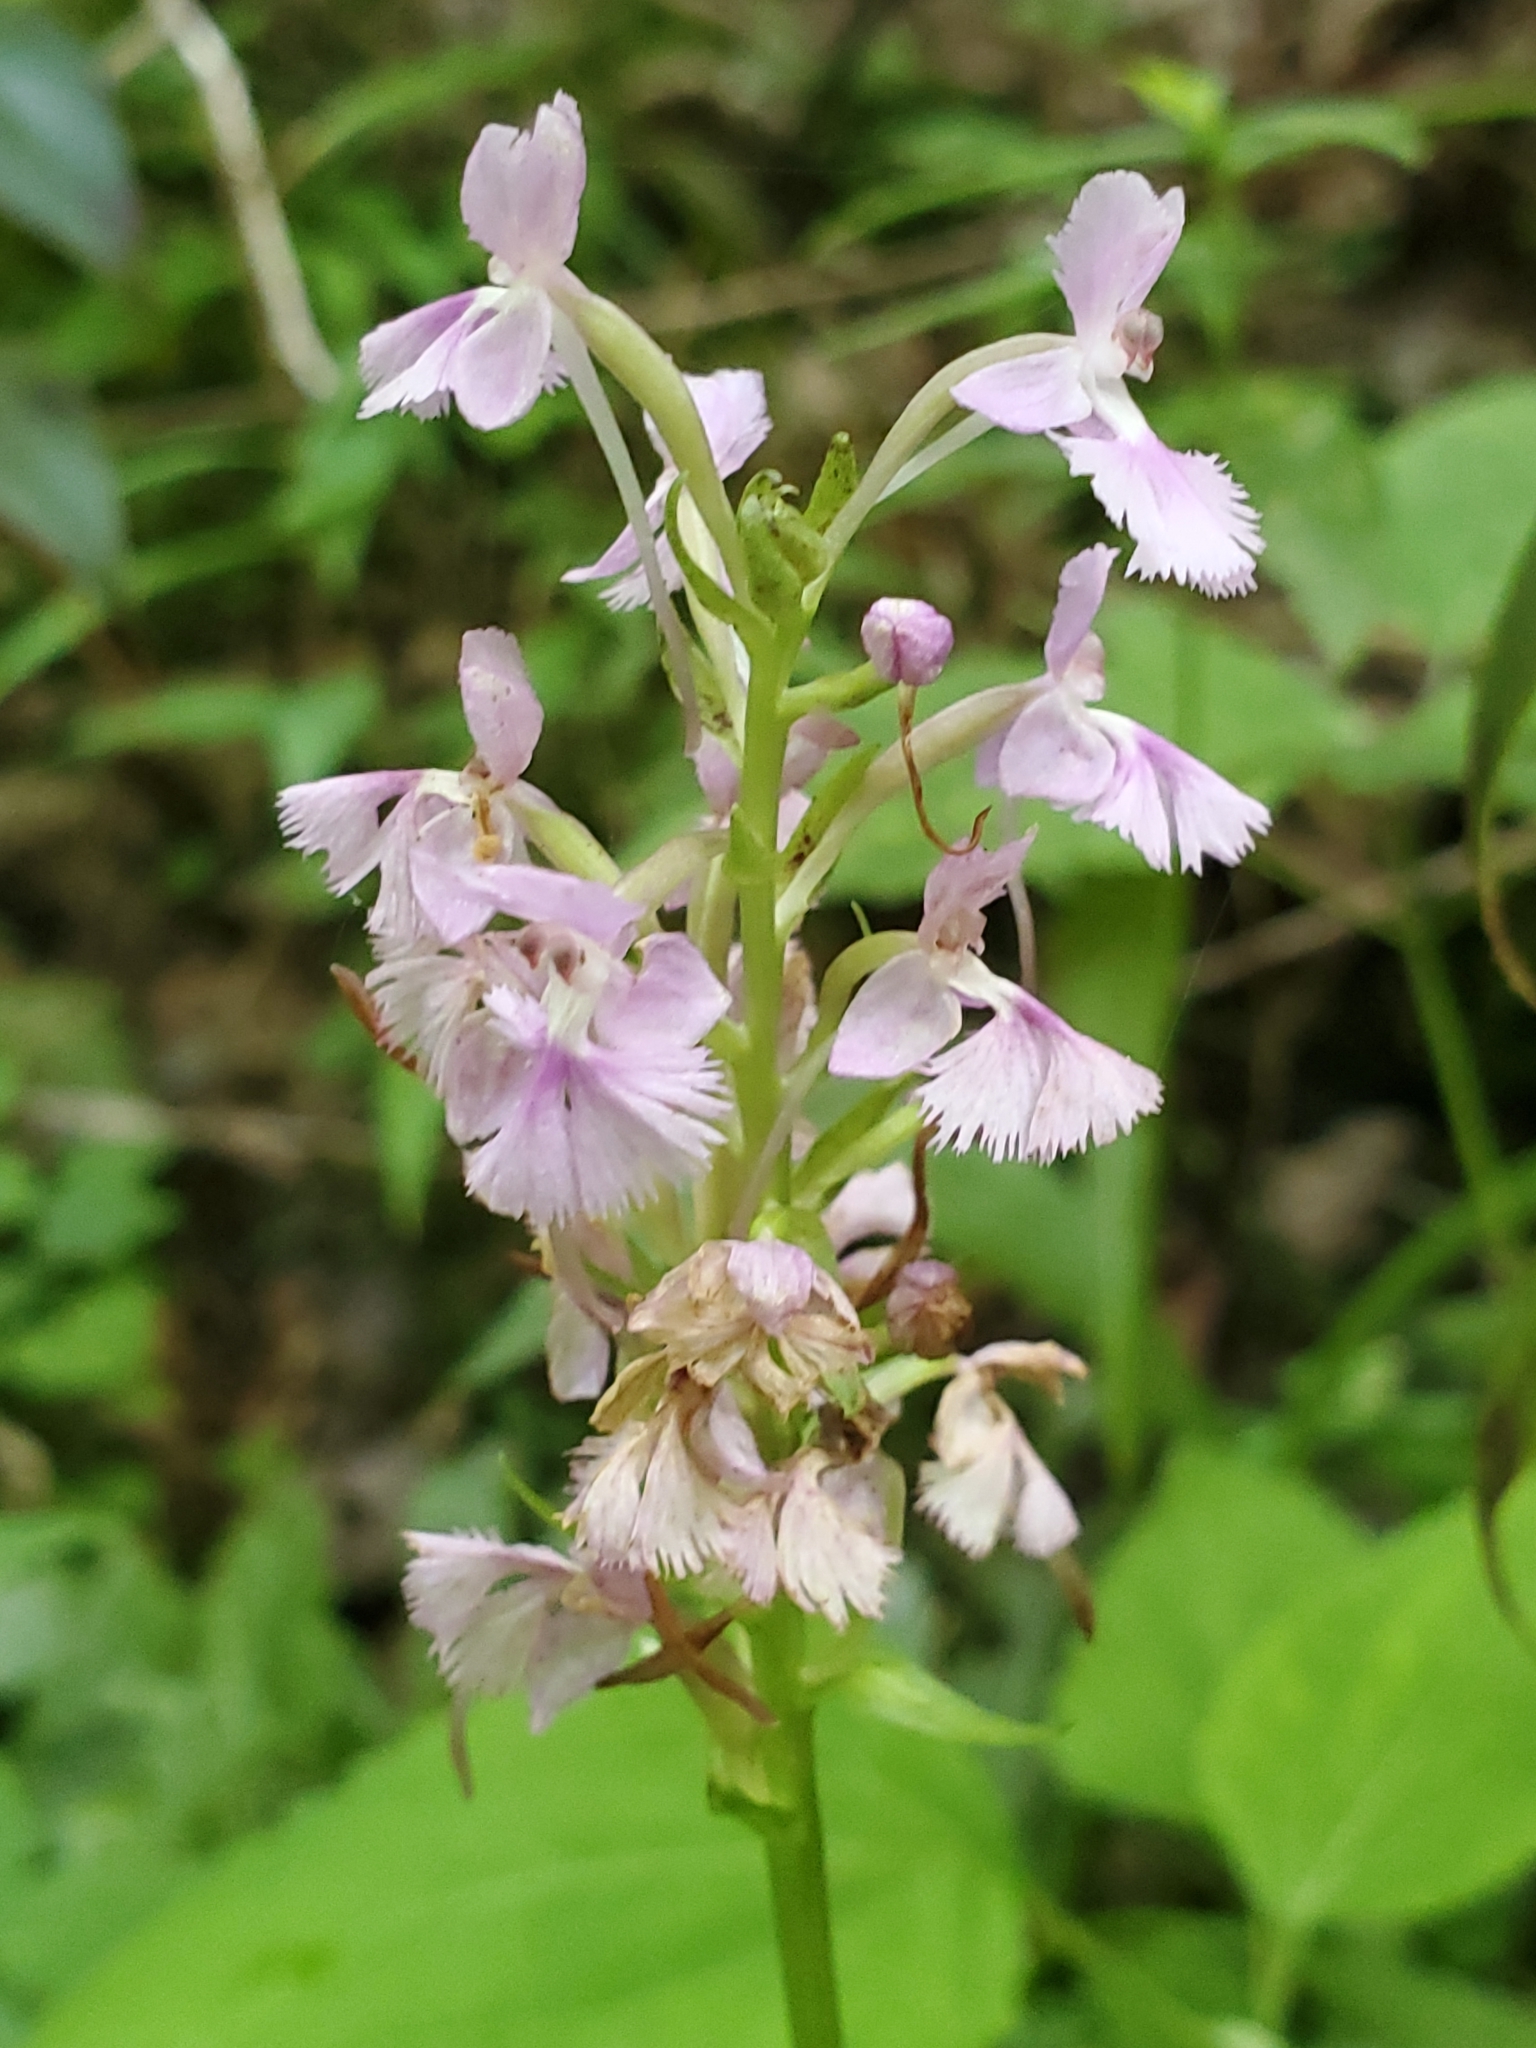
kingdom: Plantae
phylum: Tracheophyta
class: Liliopsida
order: Asparagales
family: Orchidaceae
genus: Platanthera
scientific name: Platanthera psycodes
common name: Lesser purple fringed orchid
